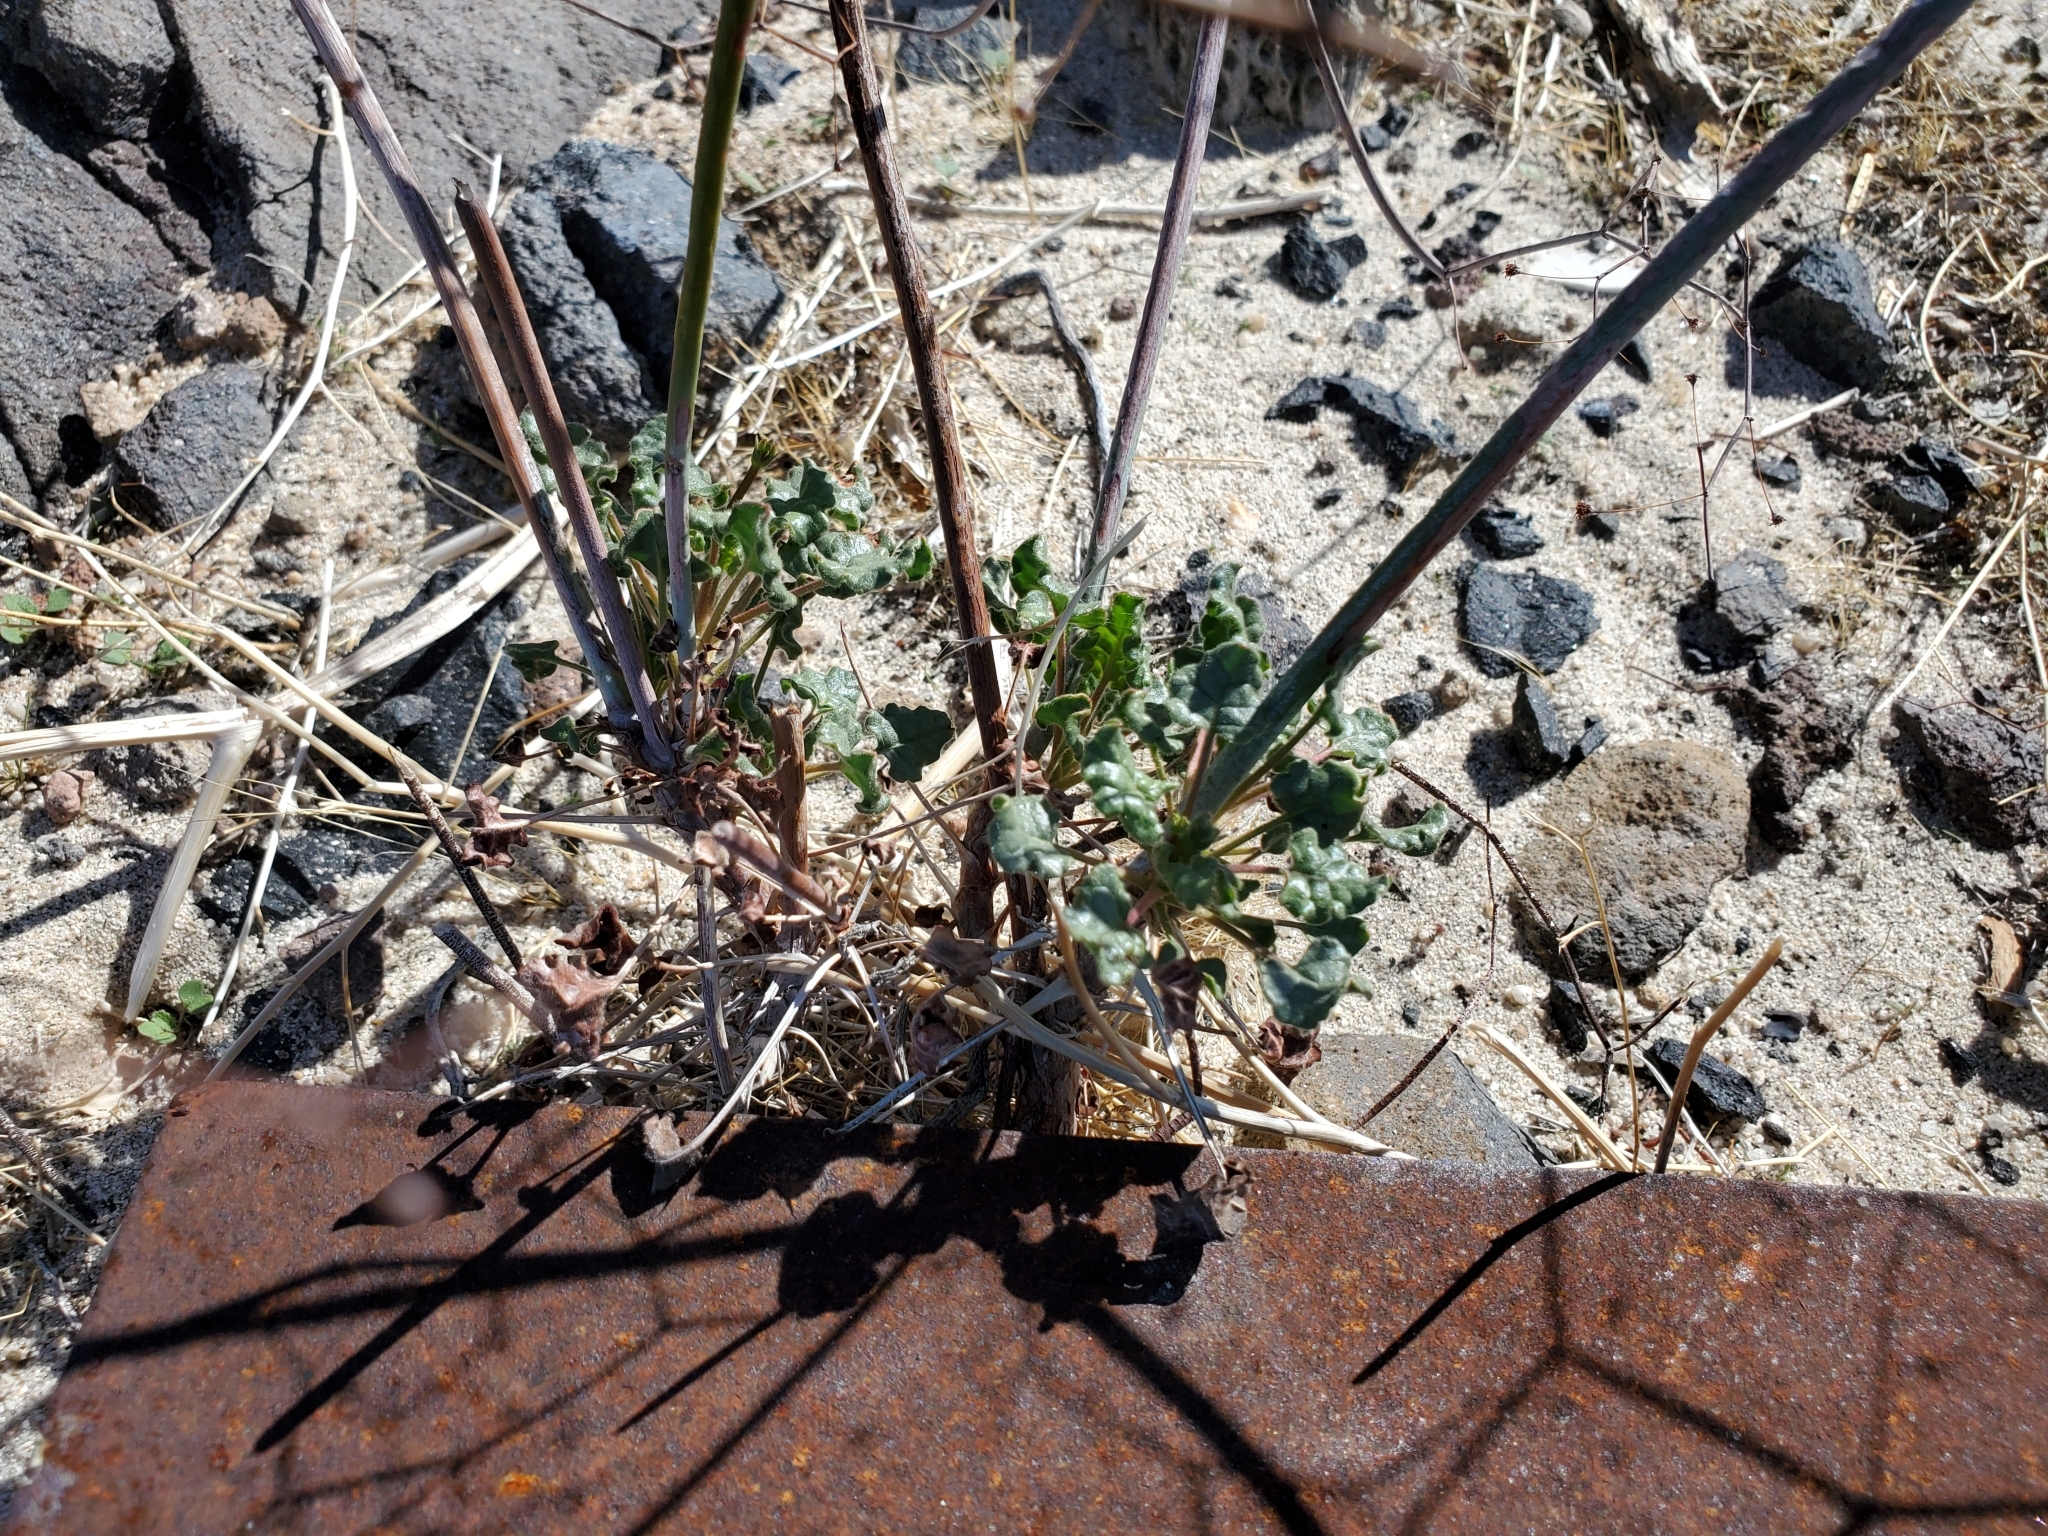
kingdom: Plantae
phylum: Tracheophyta
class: Magnoliopsida
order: Caryophyllales
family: Polygonaceae
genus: Eriogonum
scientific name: Eriogonum inflatum
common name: Desert trumpet
